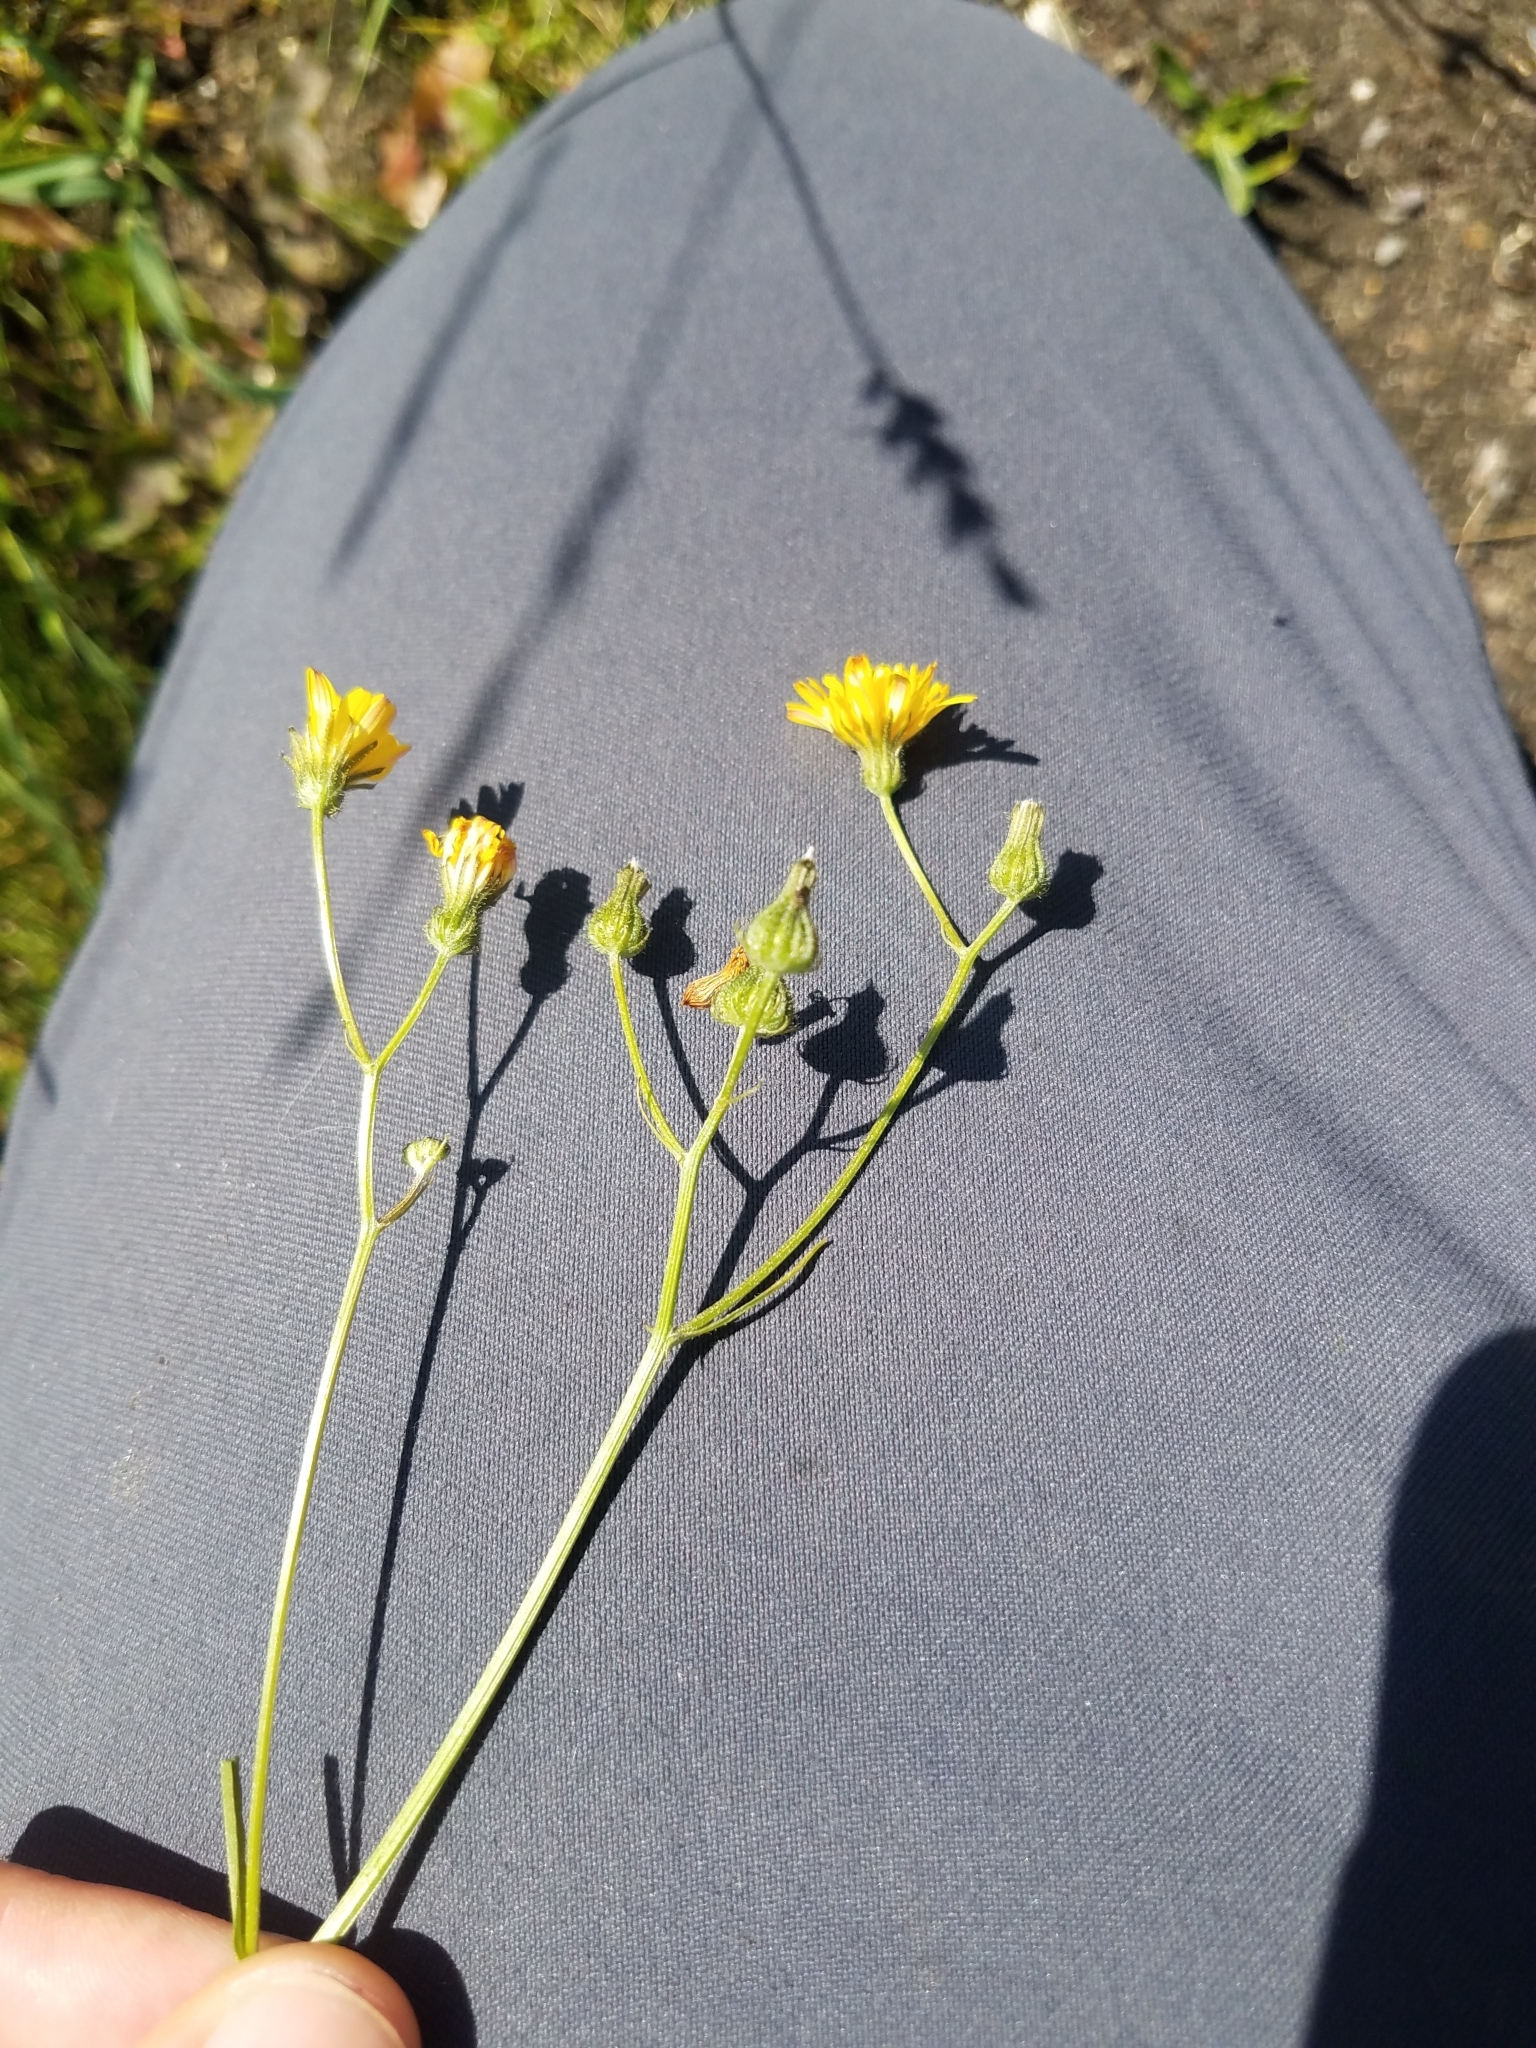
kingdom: Plantae
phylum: Tracheophyta
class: Magnoliopsida
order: Asterales
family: Asteraceae
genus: Crepis
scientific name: Crepis capillaris
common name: Smooth hawksbeard
